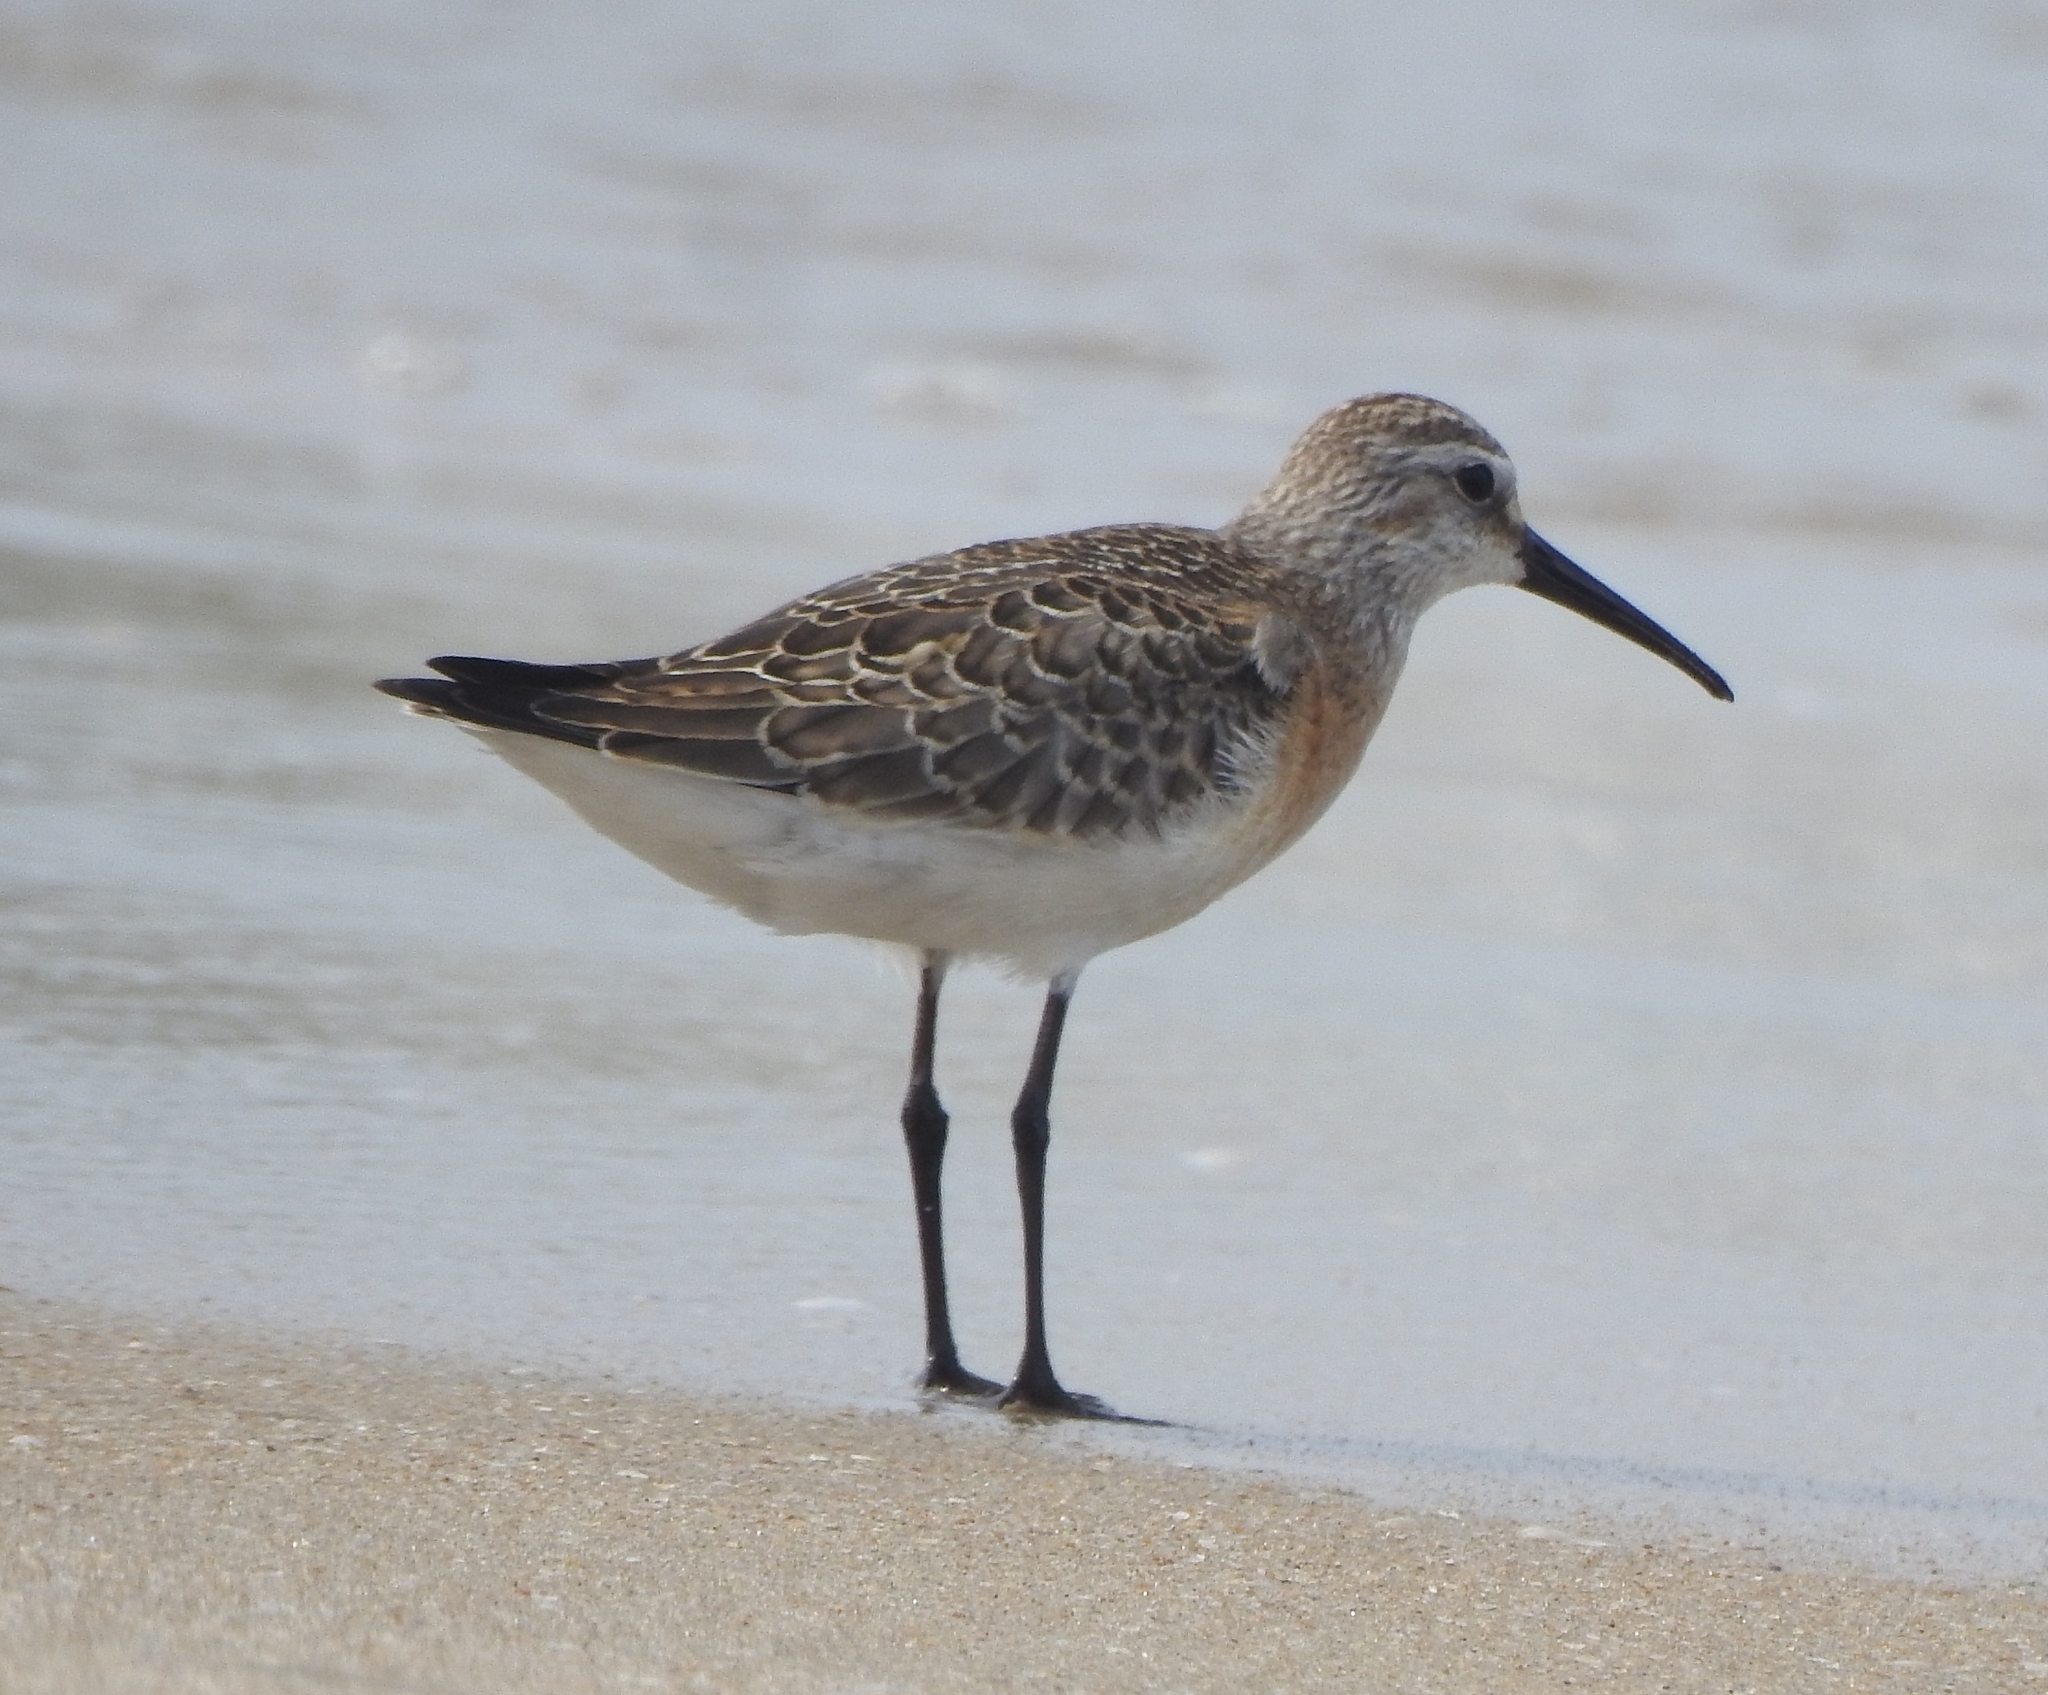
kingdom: Animalia
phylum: Chordata
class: Aves
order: Charadriiformes
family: Scolopacidae
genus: Calidris
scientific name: Calidris ferruginea
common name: Curlew sandpiper
